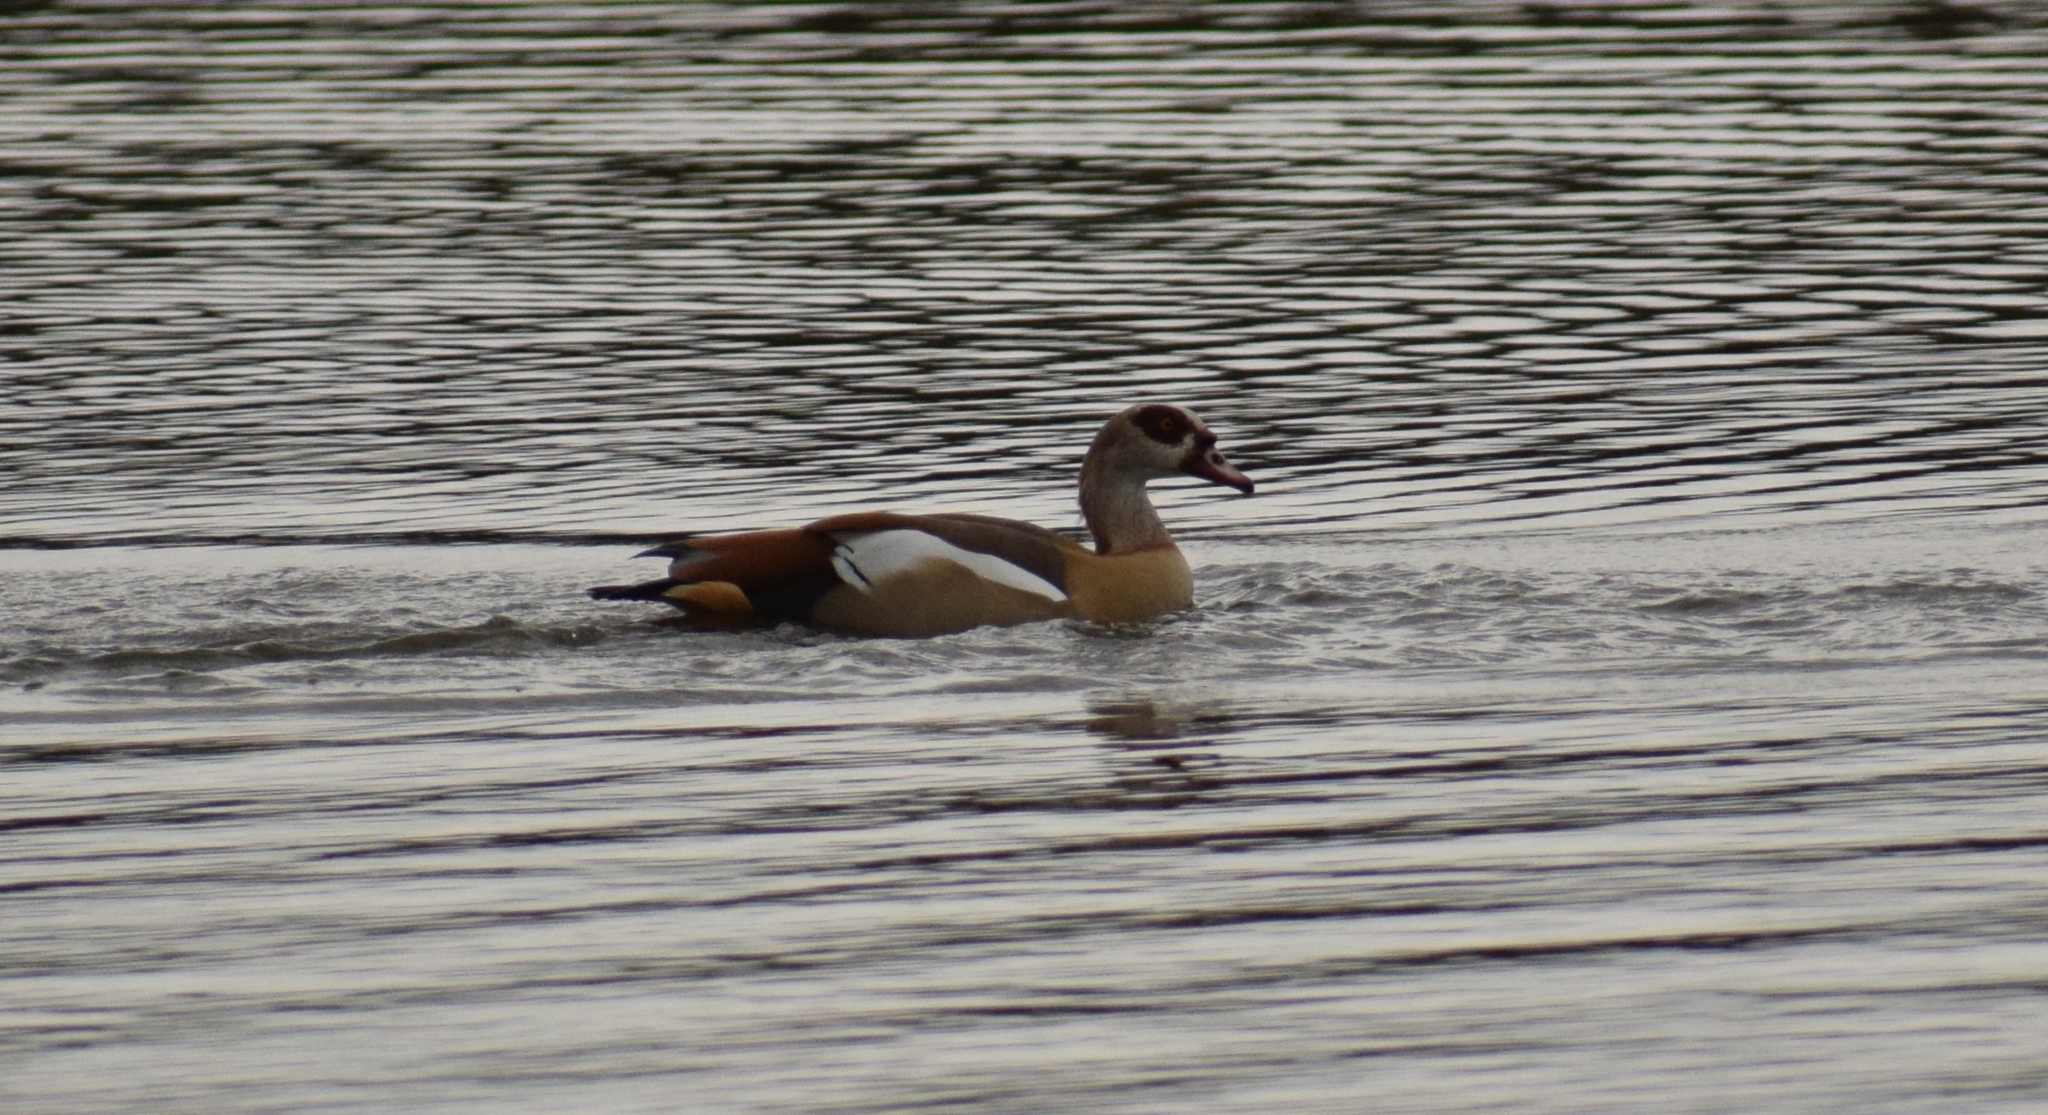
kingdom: Animalia
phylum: Chordata
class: Aves
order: Anseriformes
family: Anatidae
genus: Alopochen
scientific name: Alopochen aegyptiaca
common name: Egyptian goose
